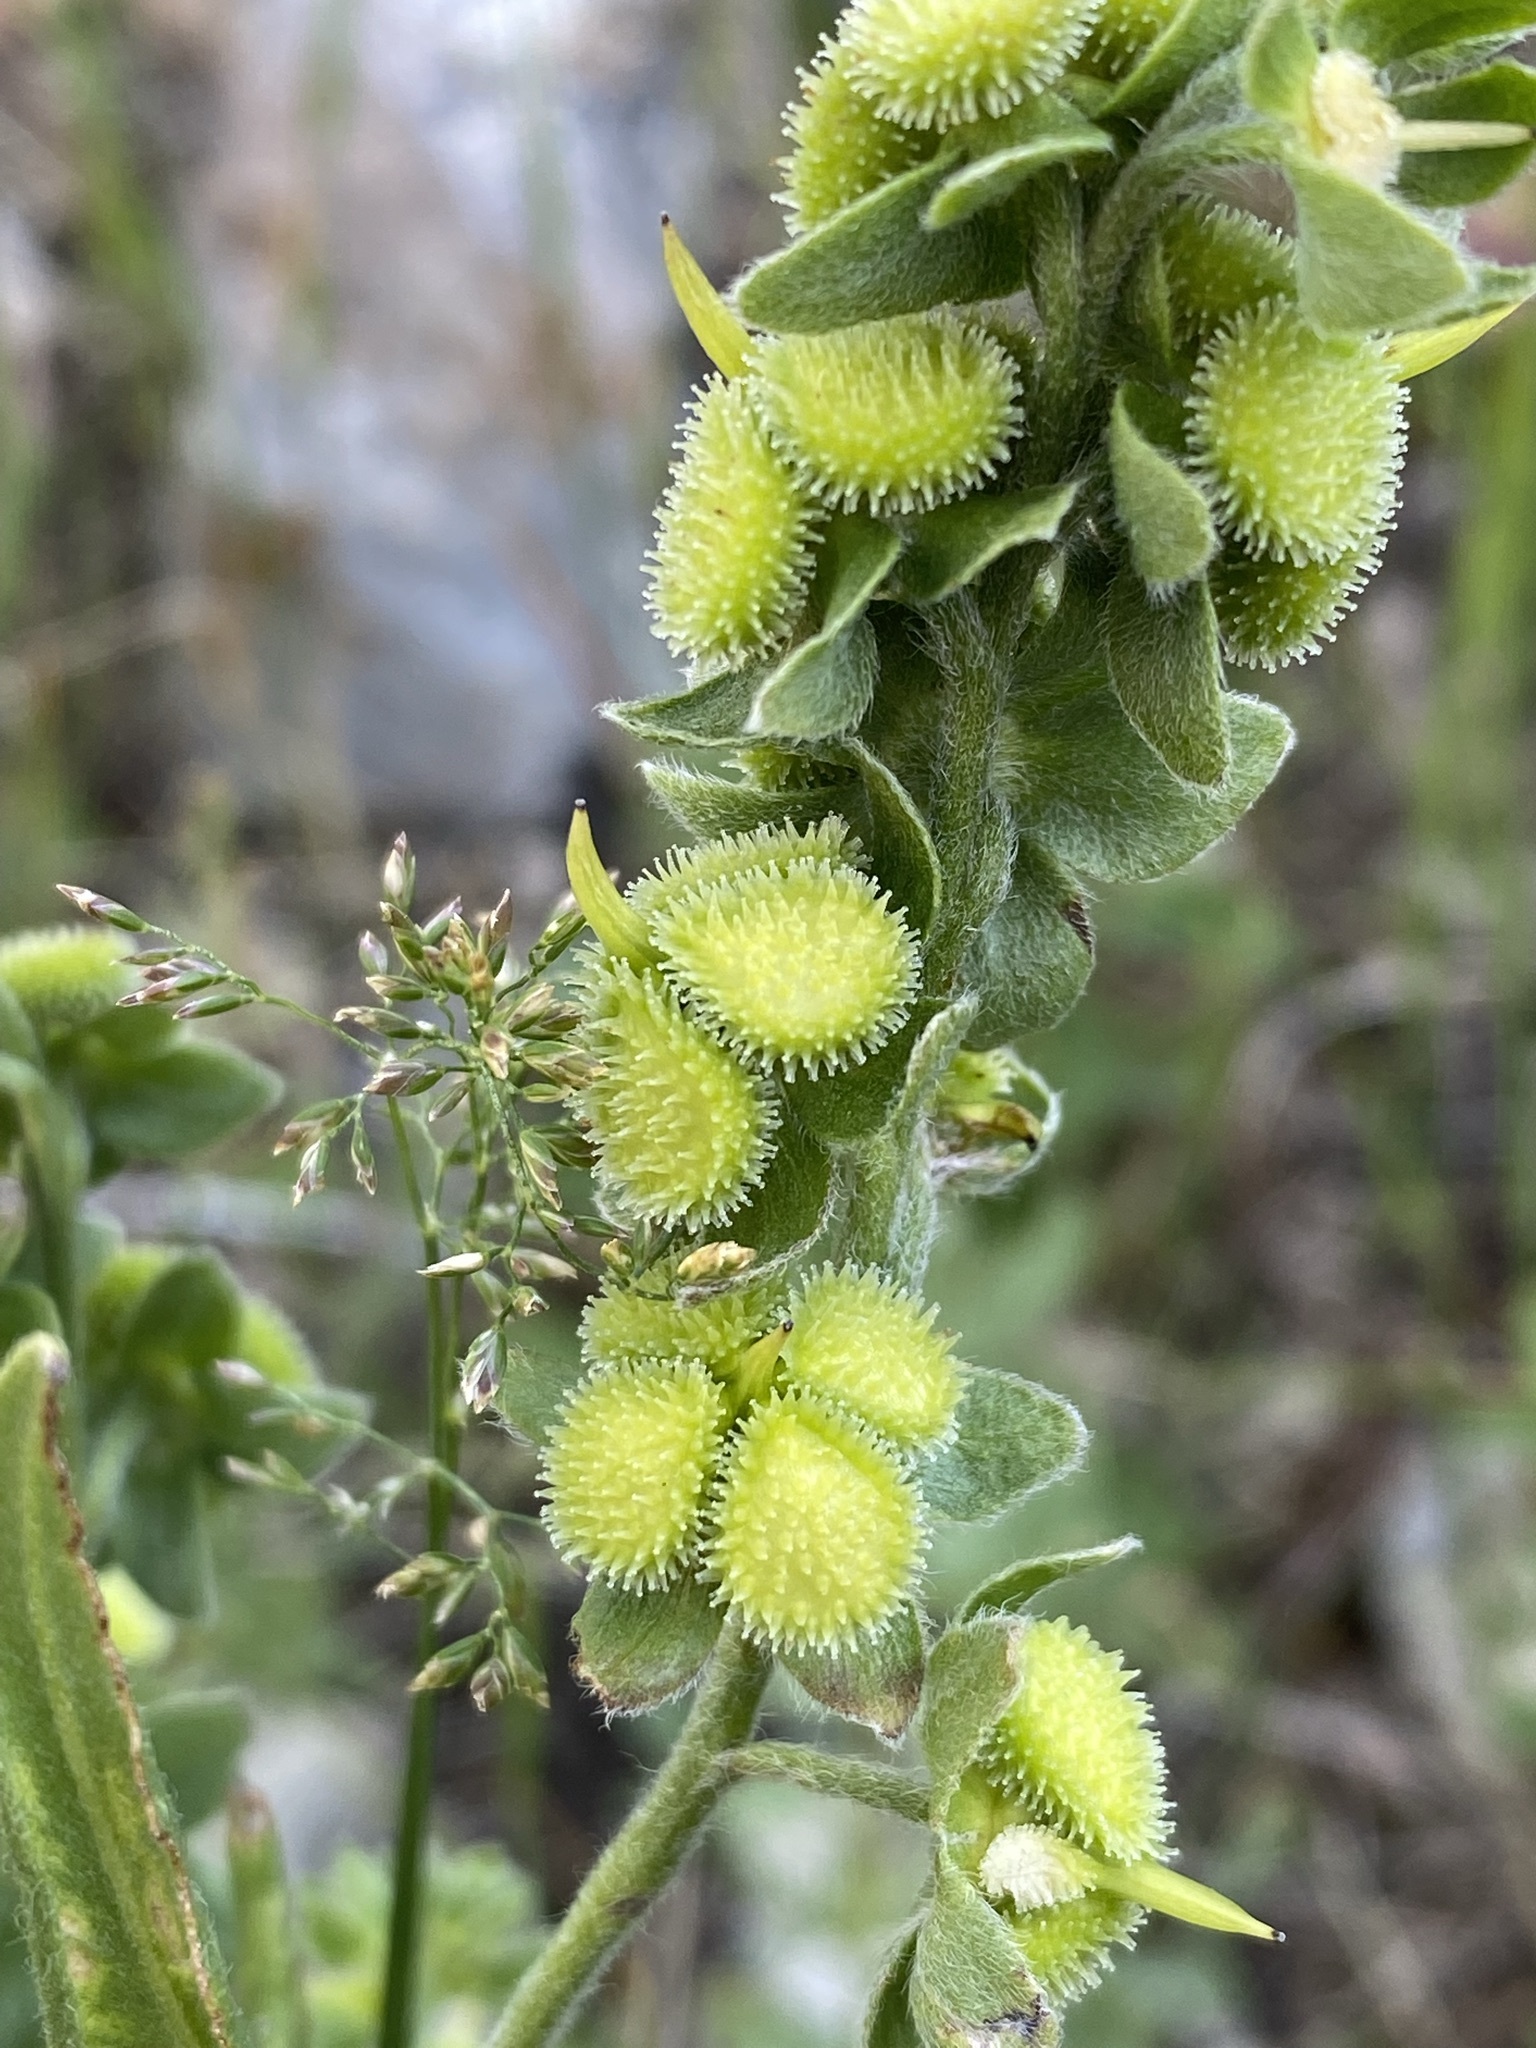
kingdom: Plantae
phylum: Tracheophyta
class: Magnoliopsida
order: Boraginales
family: Boraginaceae
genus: Cynoglossum
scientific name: Cynoglossum officinale
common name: Hound's-tongue
